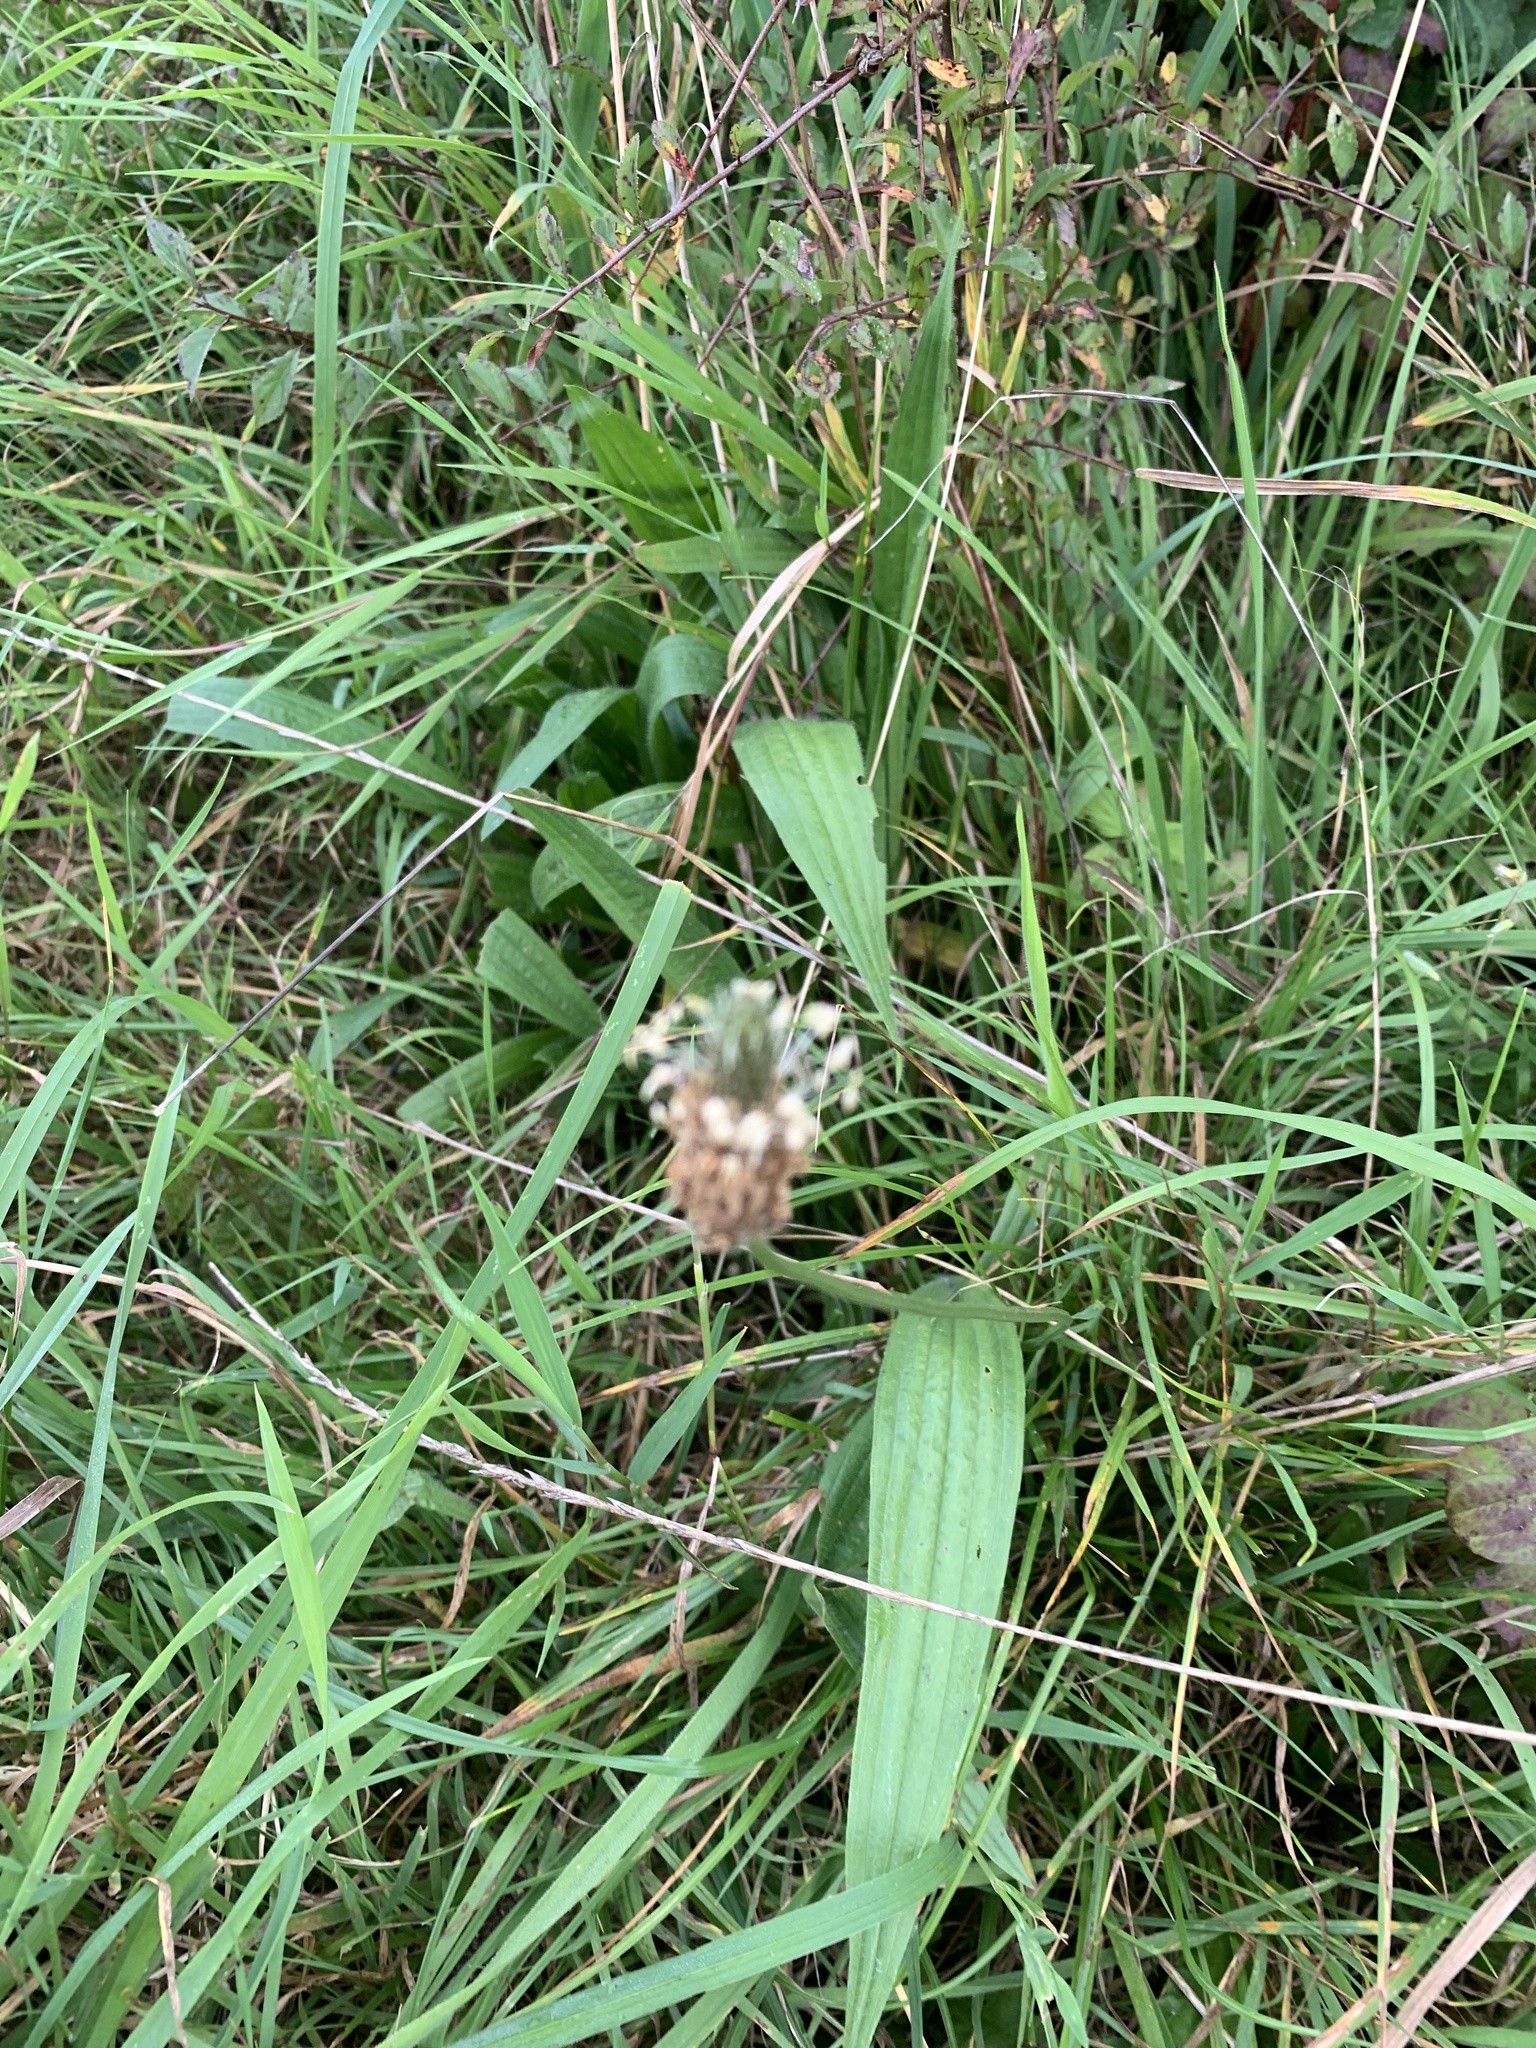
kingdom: Plantae
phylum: Tracheophyta
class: Magnoliopsida
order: Lamiales
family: Plantaginaceae
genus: Plantago
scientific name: Plantago lanceolata
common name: Ribwort plantain
